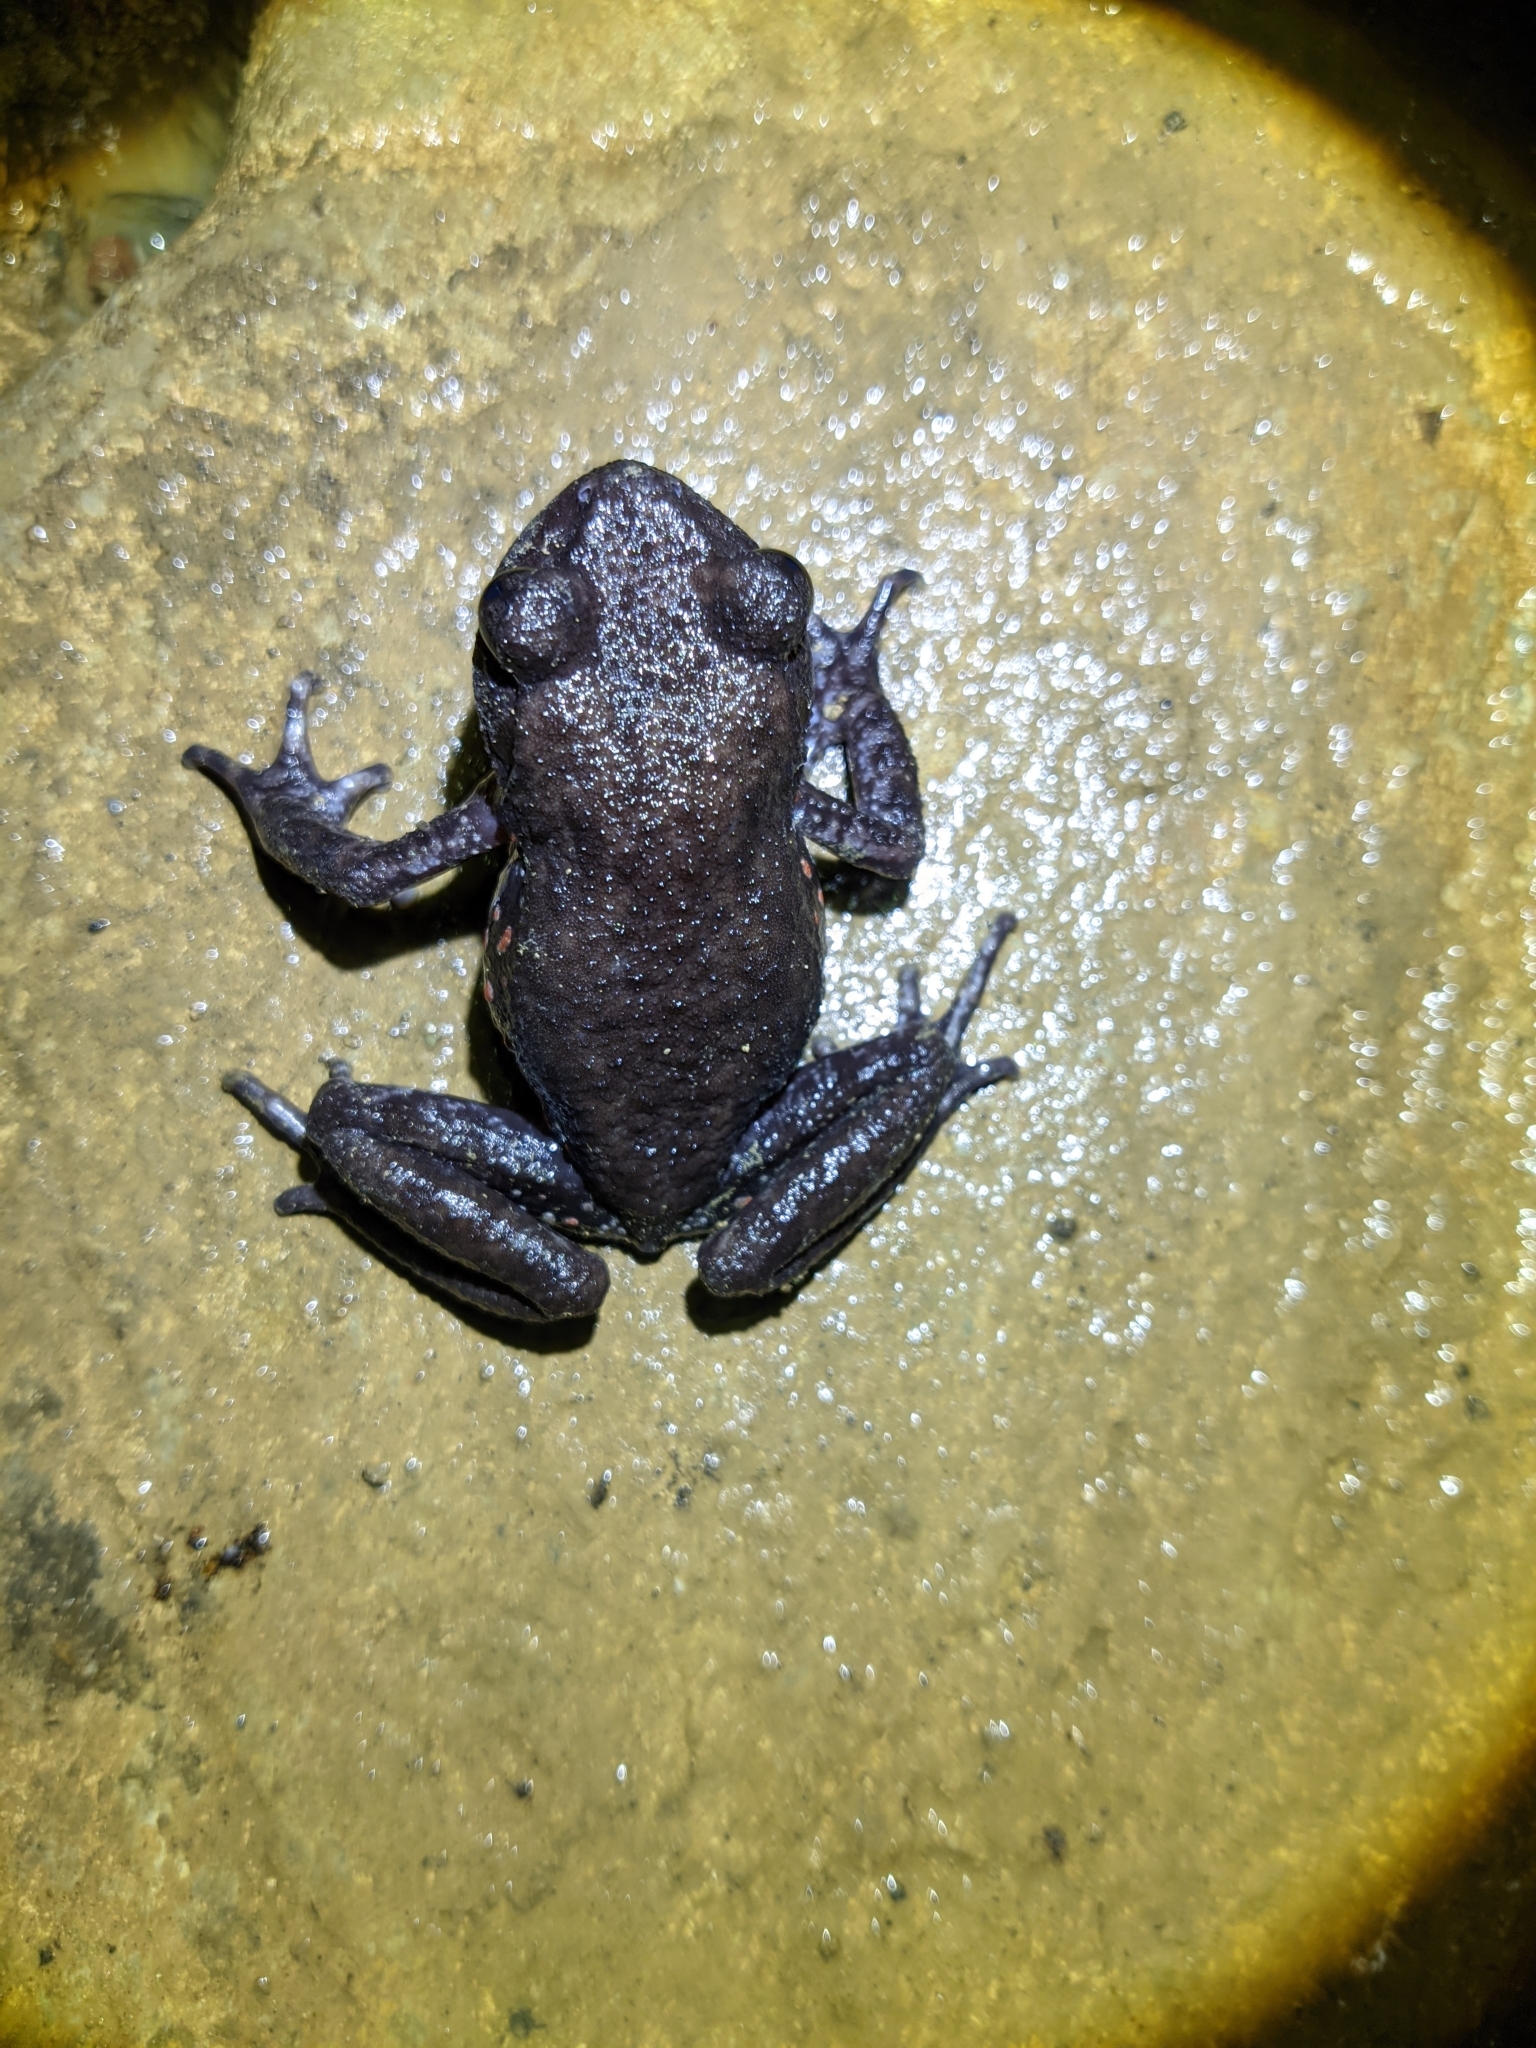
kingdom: Animalia
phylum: Chordata
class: Amphibia
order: Anura
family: Megophryidae
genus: Oreolalax
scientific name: Oreolalax rhodostigmatus
